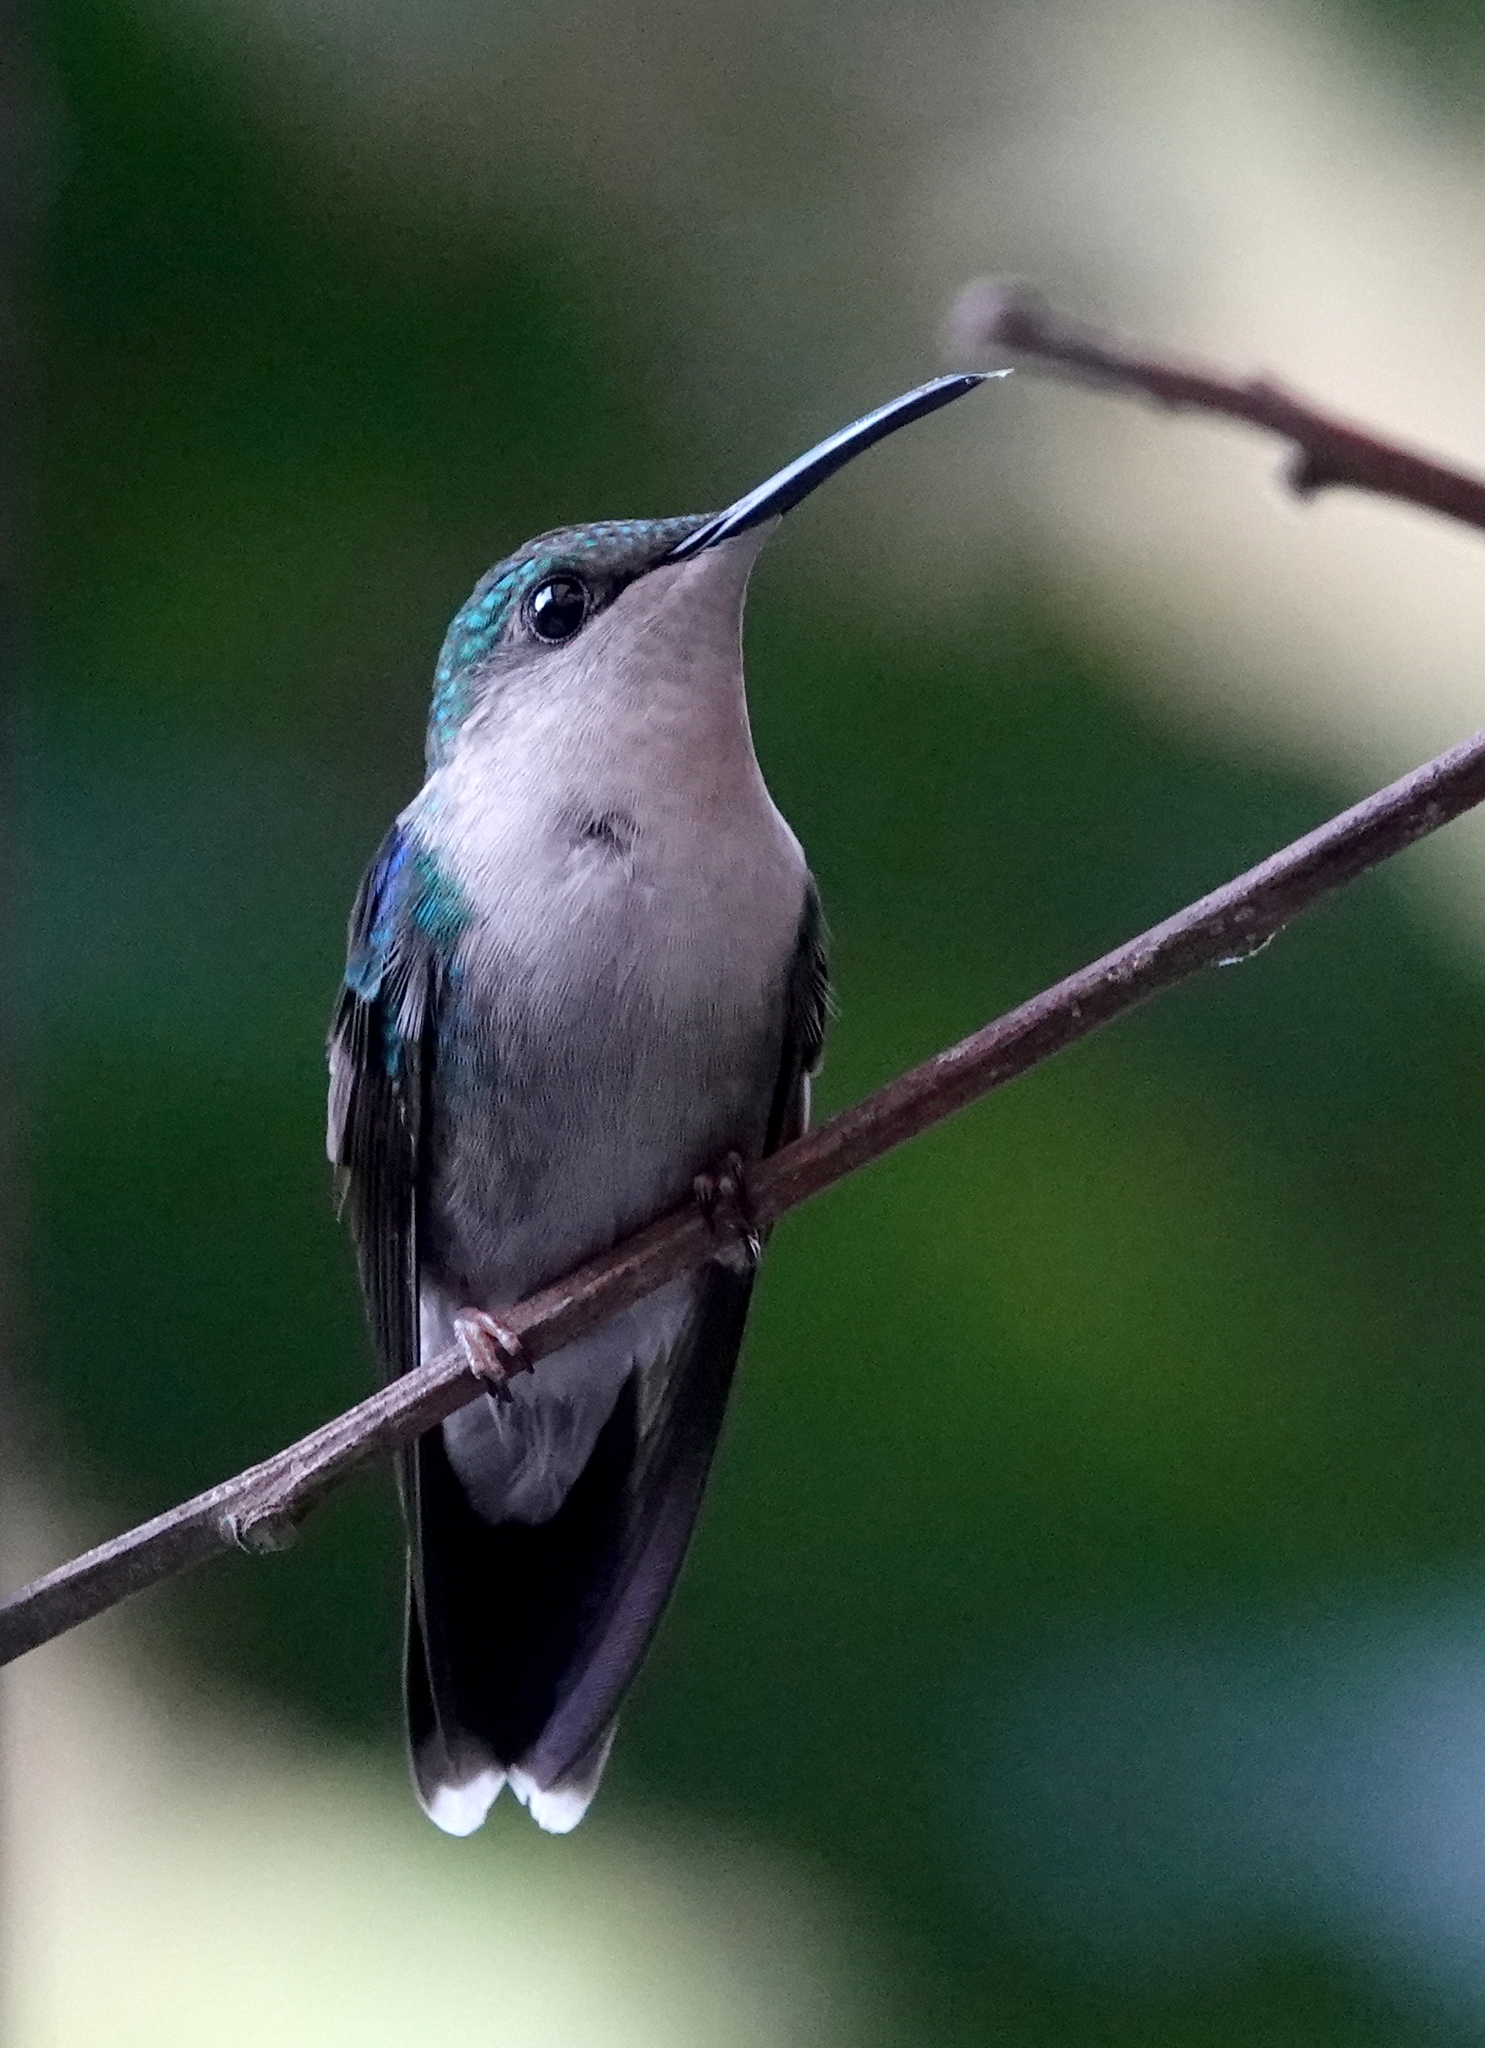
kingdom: Animalia
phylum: Chordata
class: Aves
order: Apodiformes
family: Trochilidae
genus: Thalurania
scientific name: Thalurania colombica
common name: Crowned woodnymph
